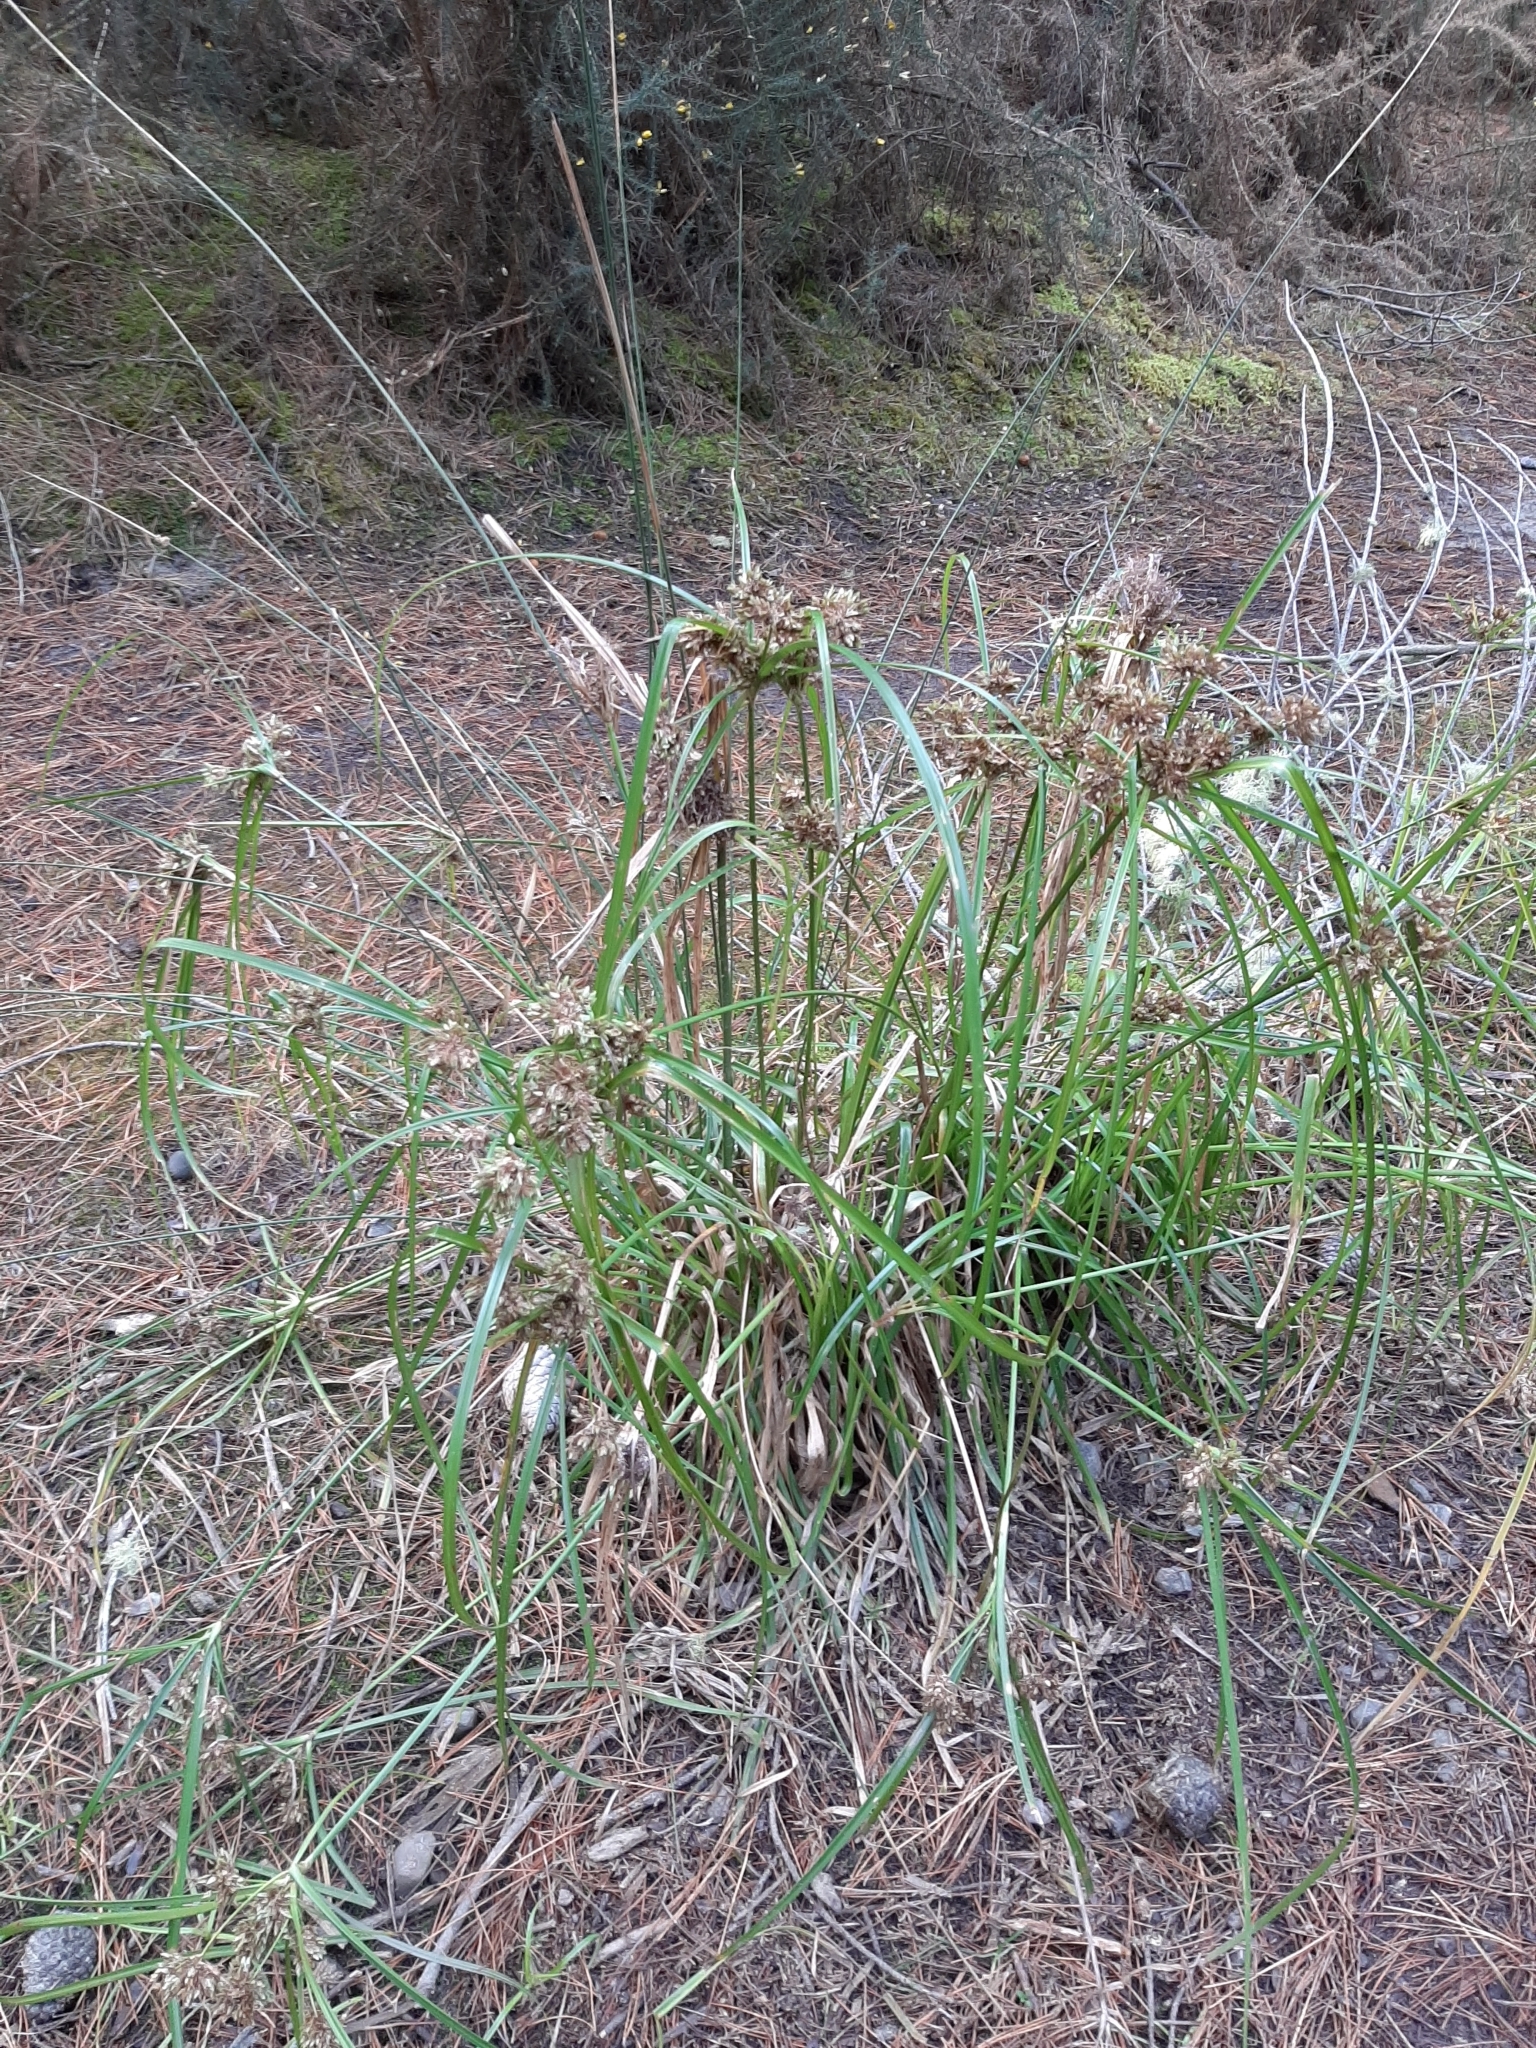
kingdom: Plantae
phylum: Tracheophyta
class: Liliopsida
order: Poales
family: Cyperaceae
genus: Cyperus
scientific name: Cyperus eragrostis
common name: Tall flatsedge
